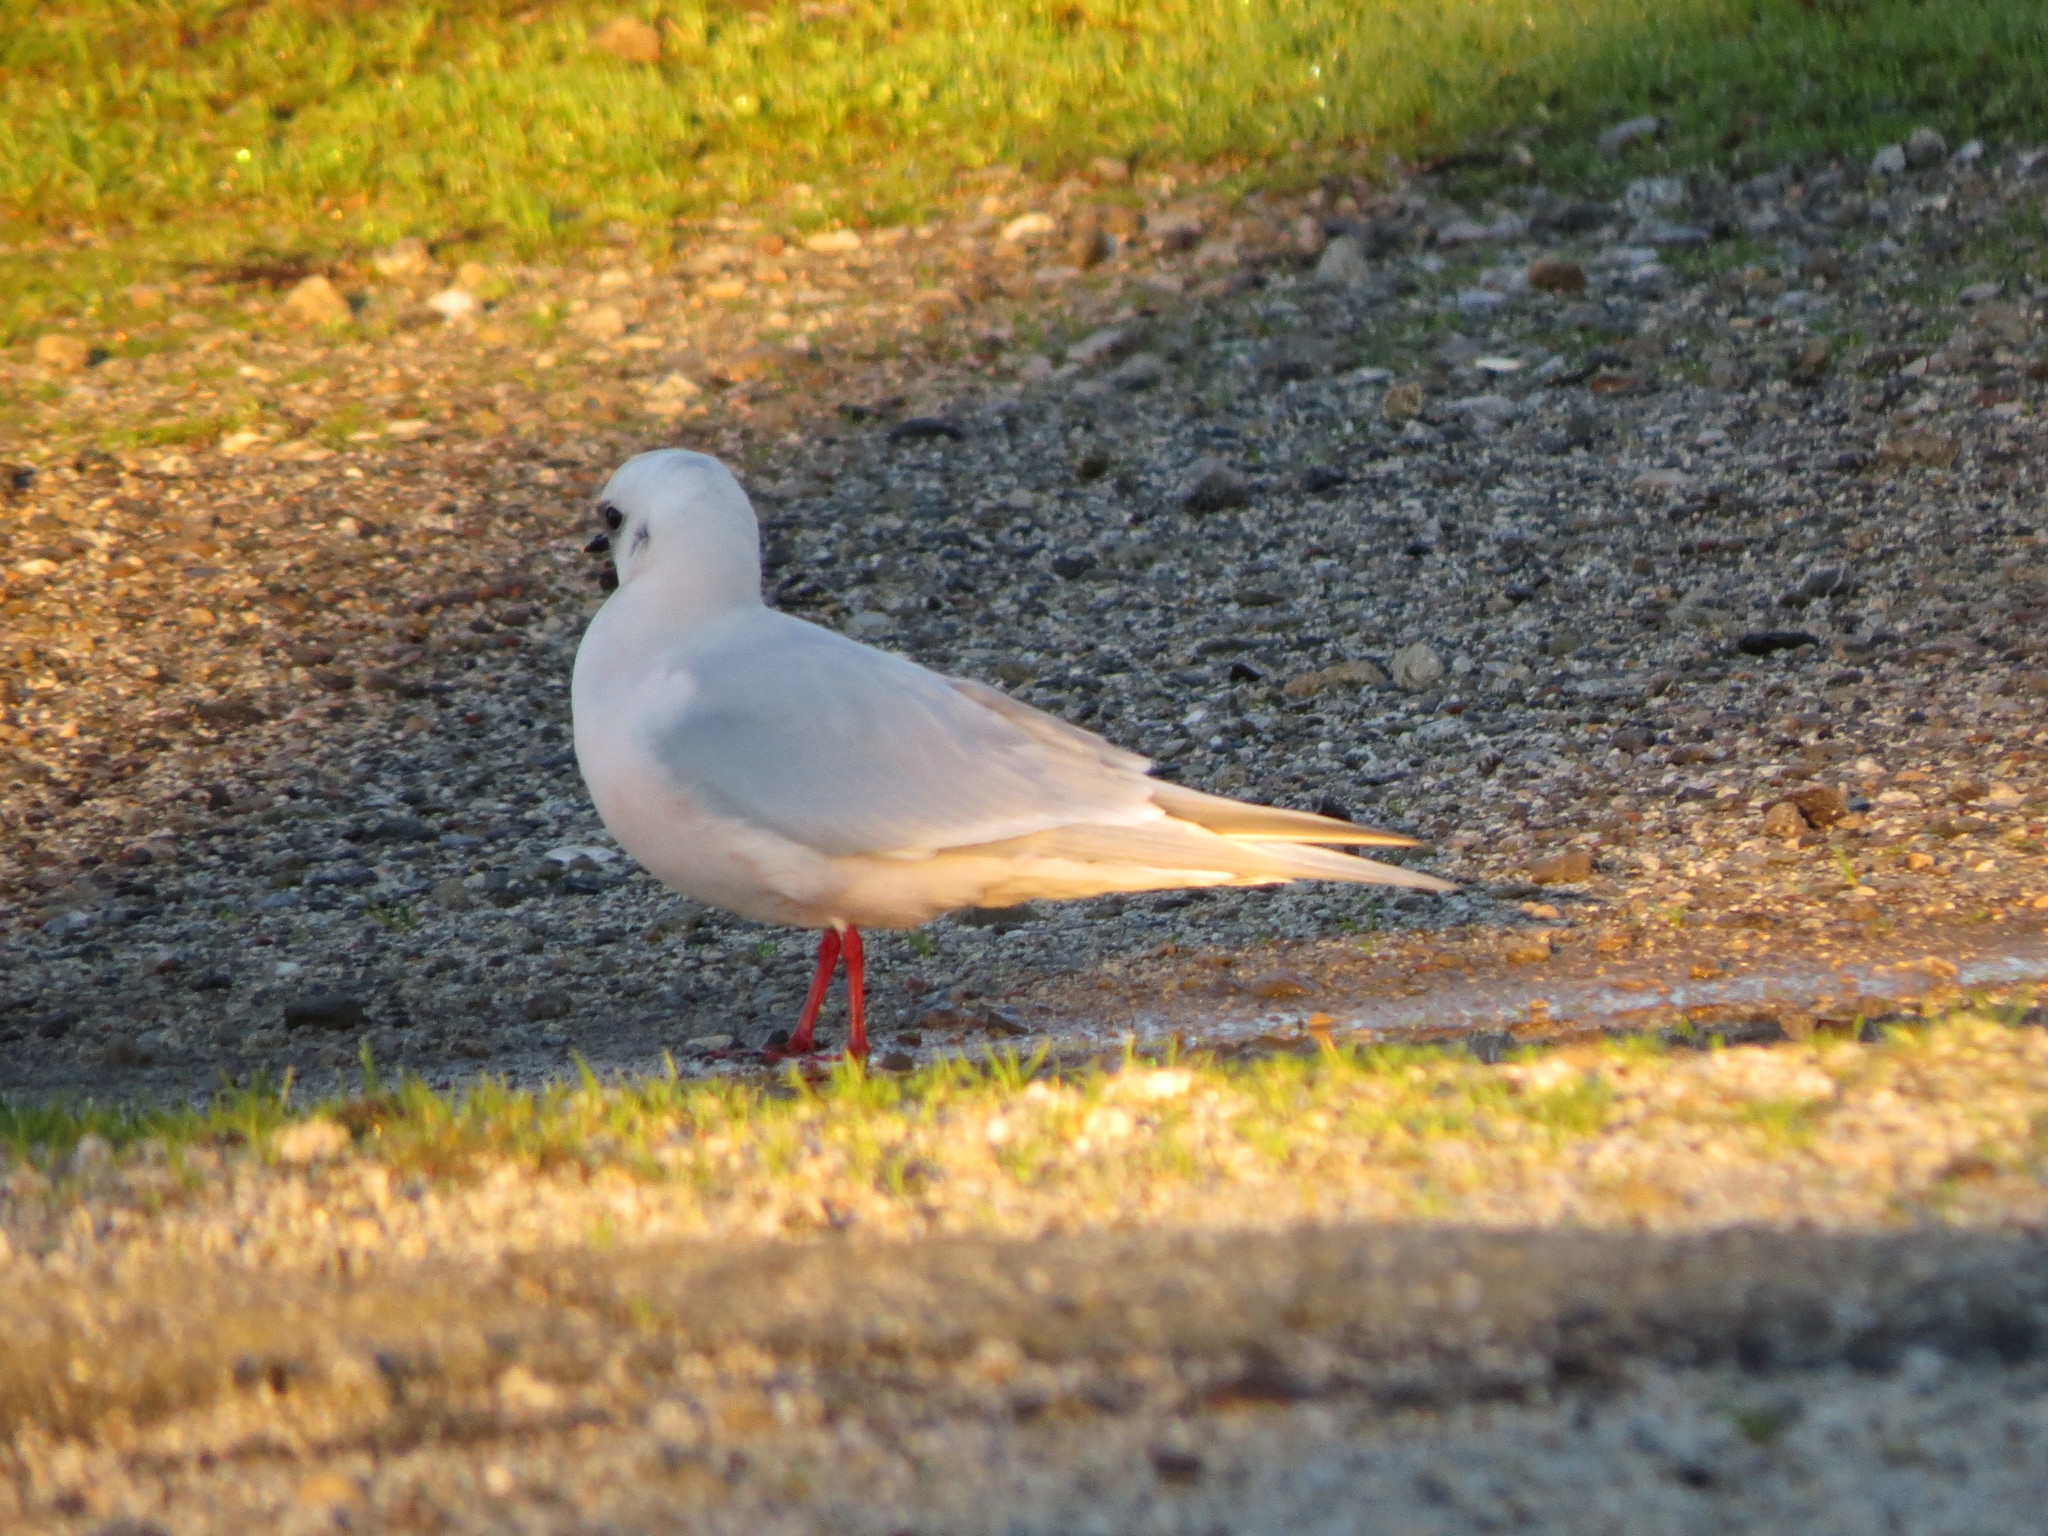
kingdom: Animalia
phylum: Chordata
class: Aves
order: Charadriiformes
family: Laridae
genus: Rhodostethia
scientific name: Rhodostethia rosea
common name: Ross's gull
